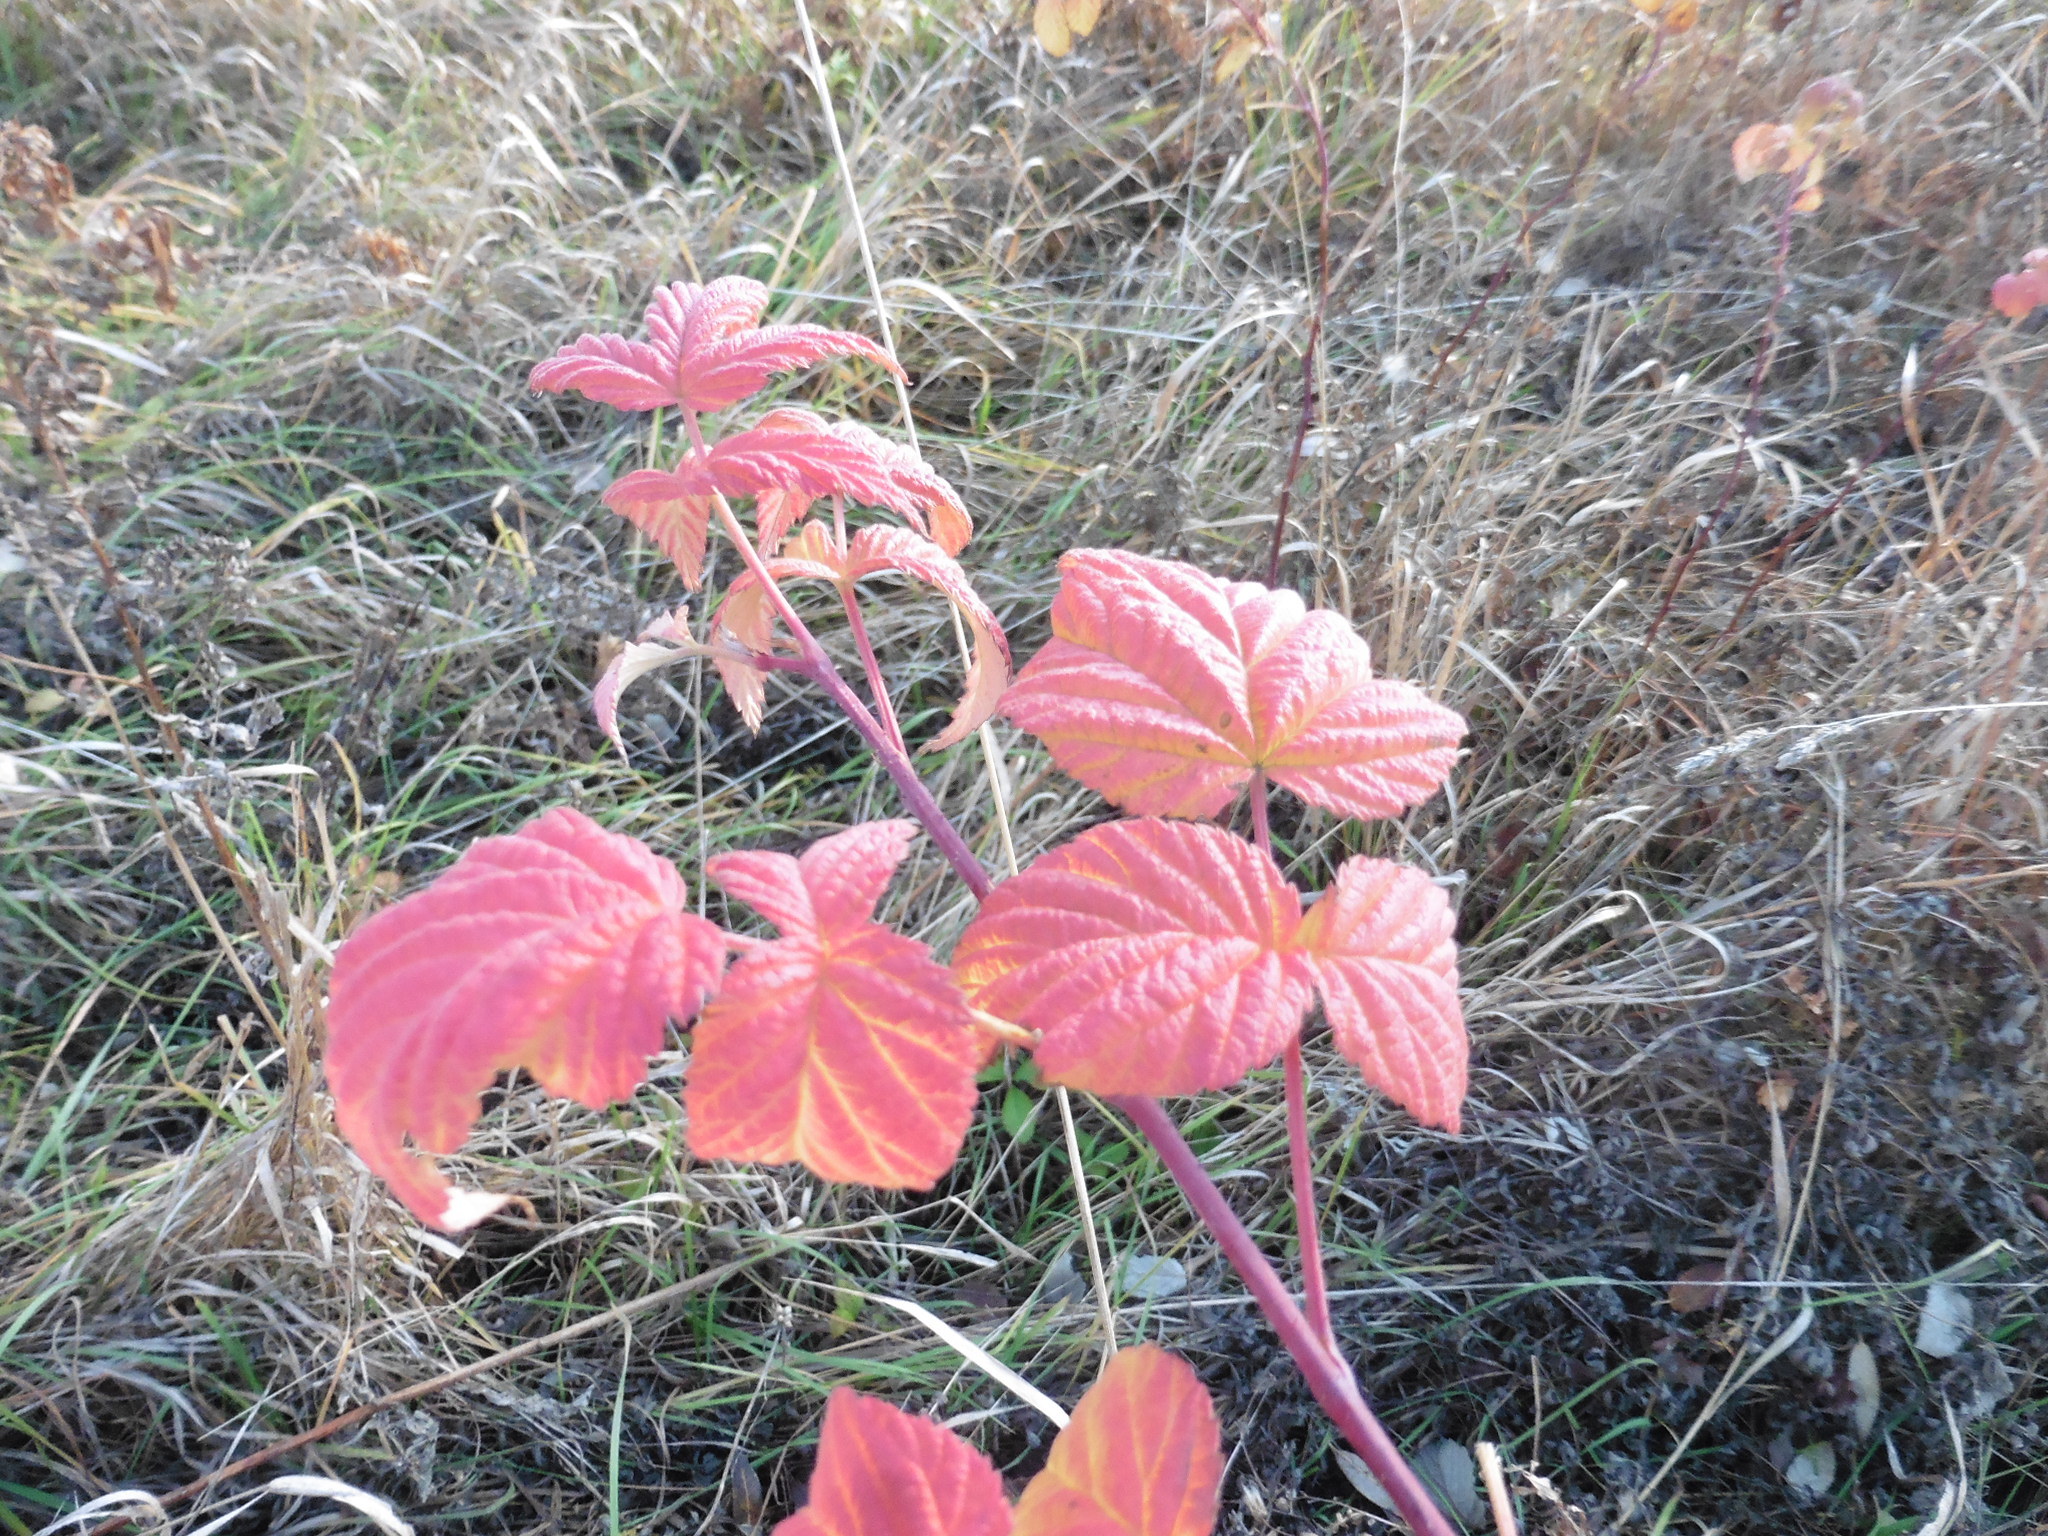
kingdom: Plantae
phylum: Tracheophyta
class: Magnoliopsida
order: Rosales
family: Rosaceae
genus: Rubus
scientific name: Rubus idaeus
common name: Raspberry
